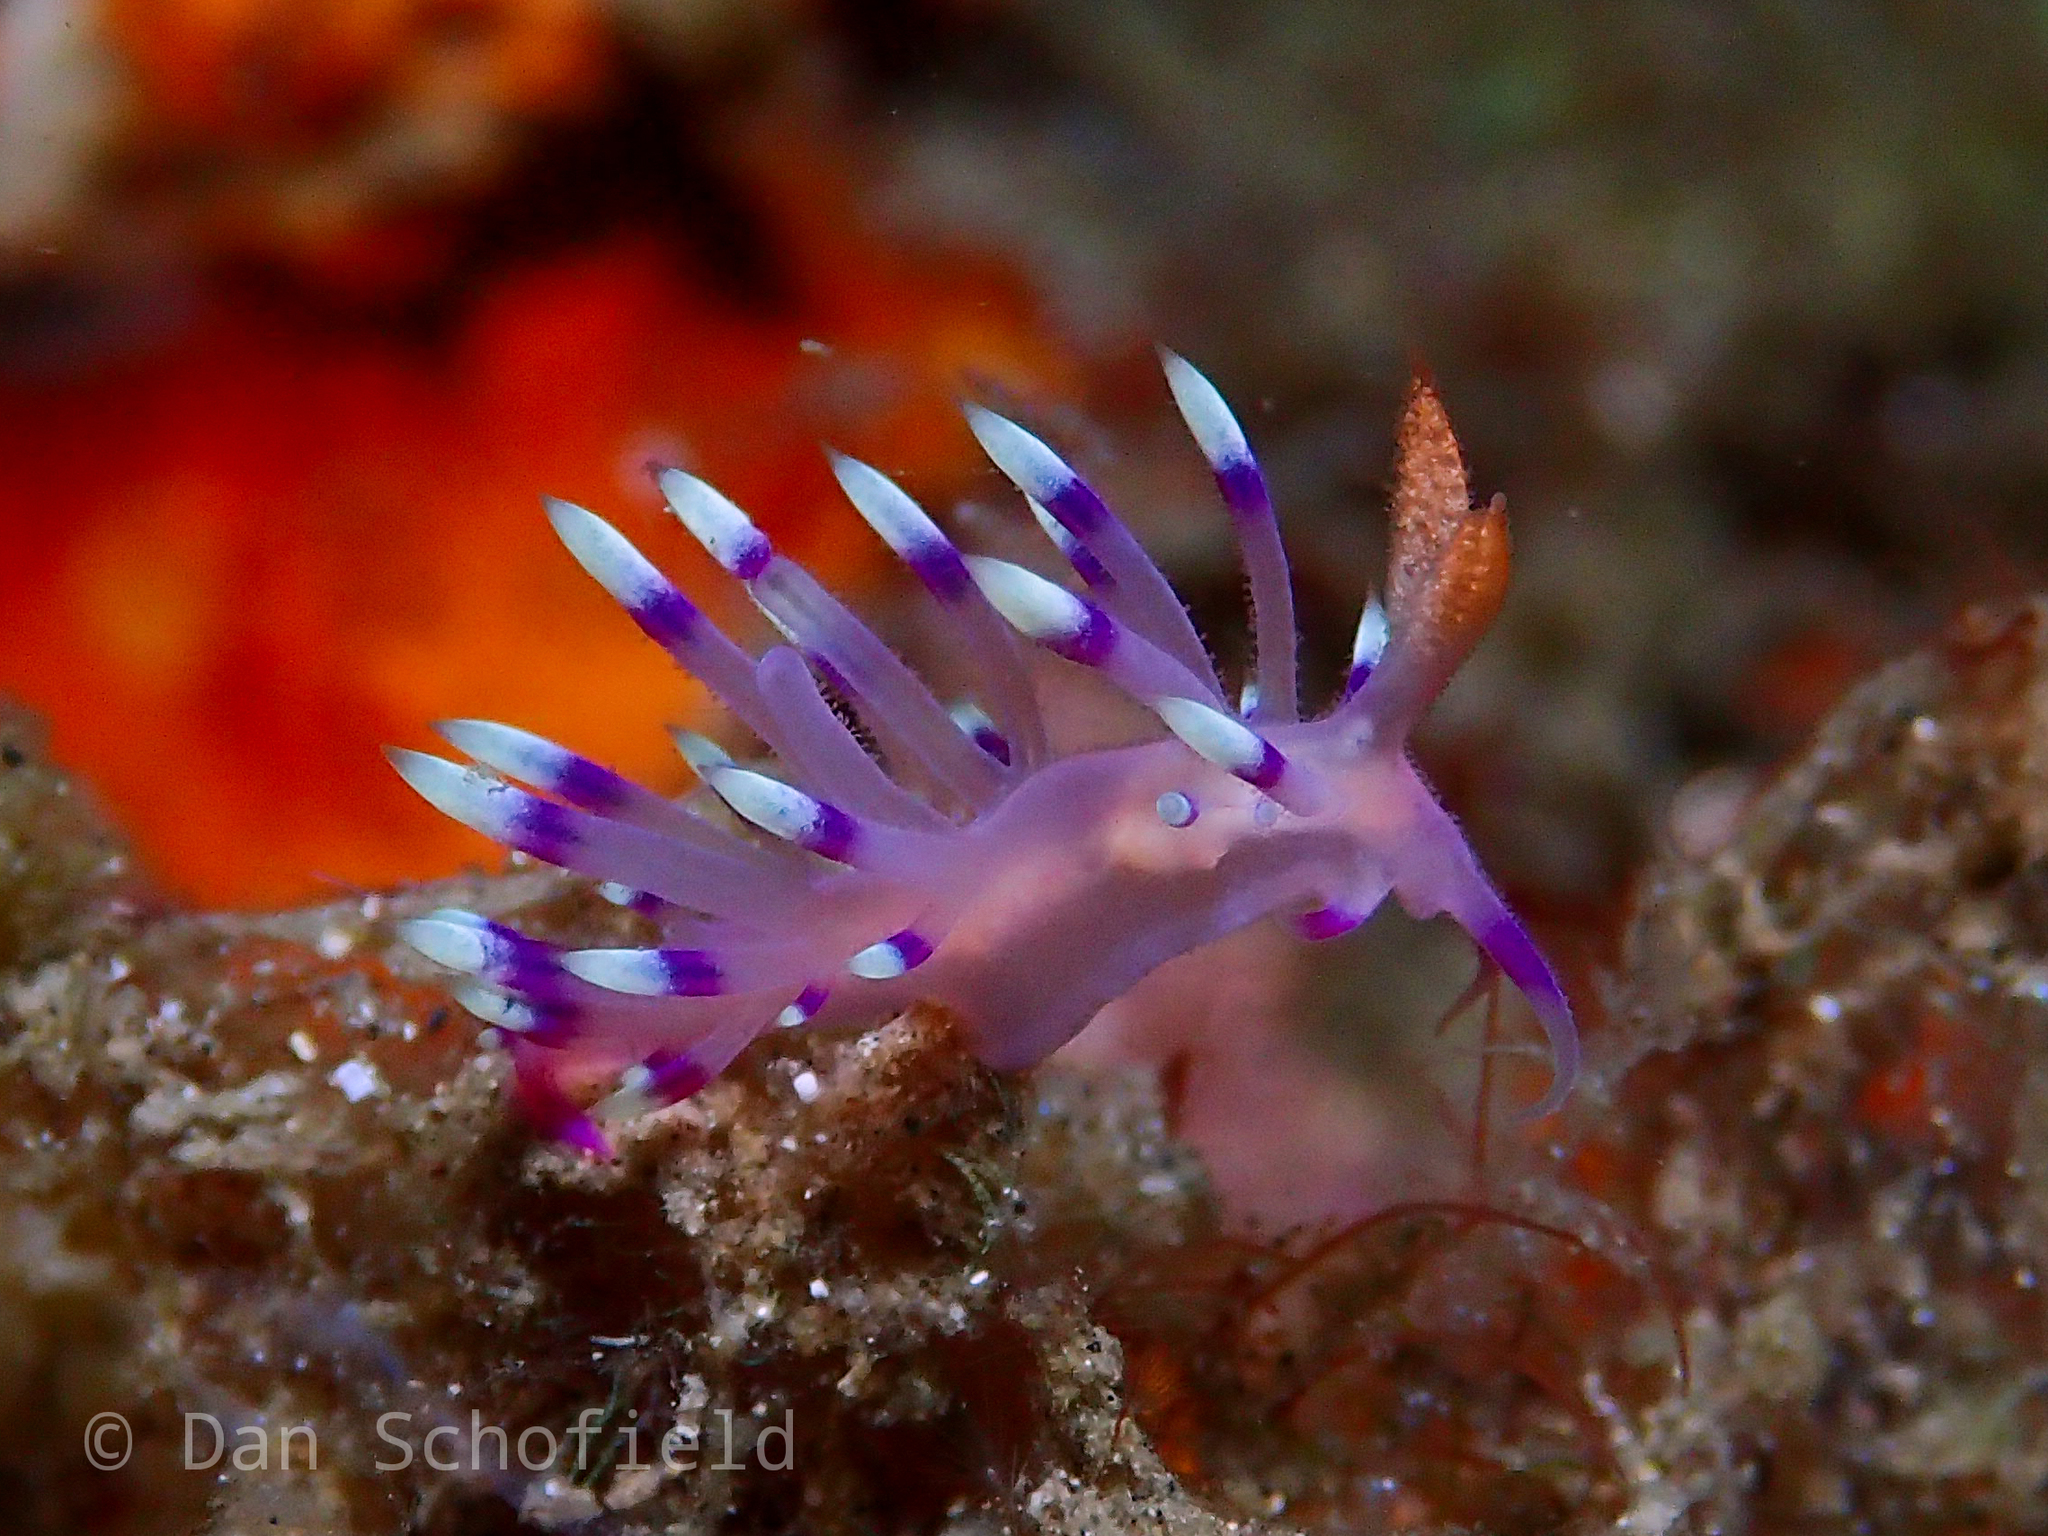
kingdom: Animalia
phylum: Mollusca
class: Gastropoda
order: Nudibranchia
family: Flabellinidae
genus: Coryphellina
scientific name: Coryphellina exoptata
